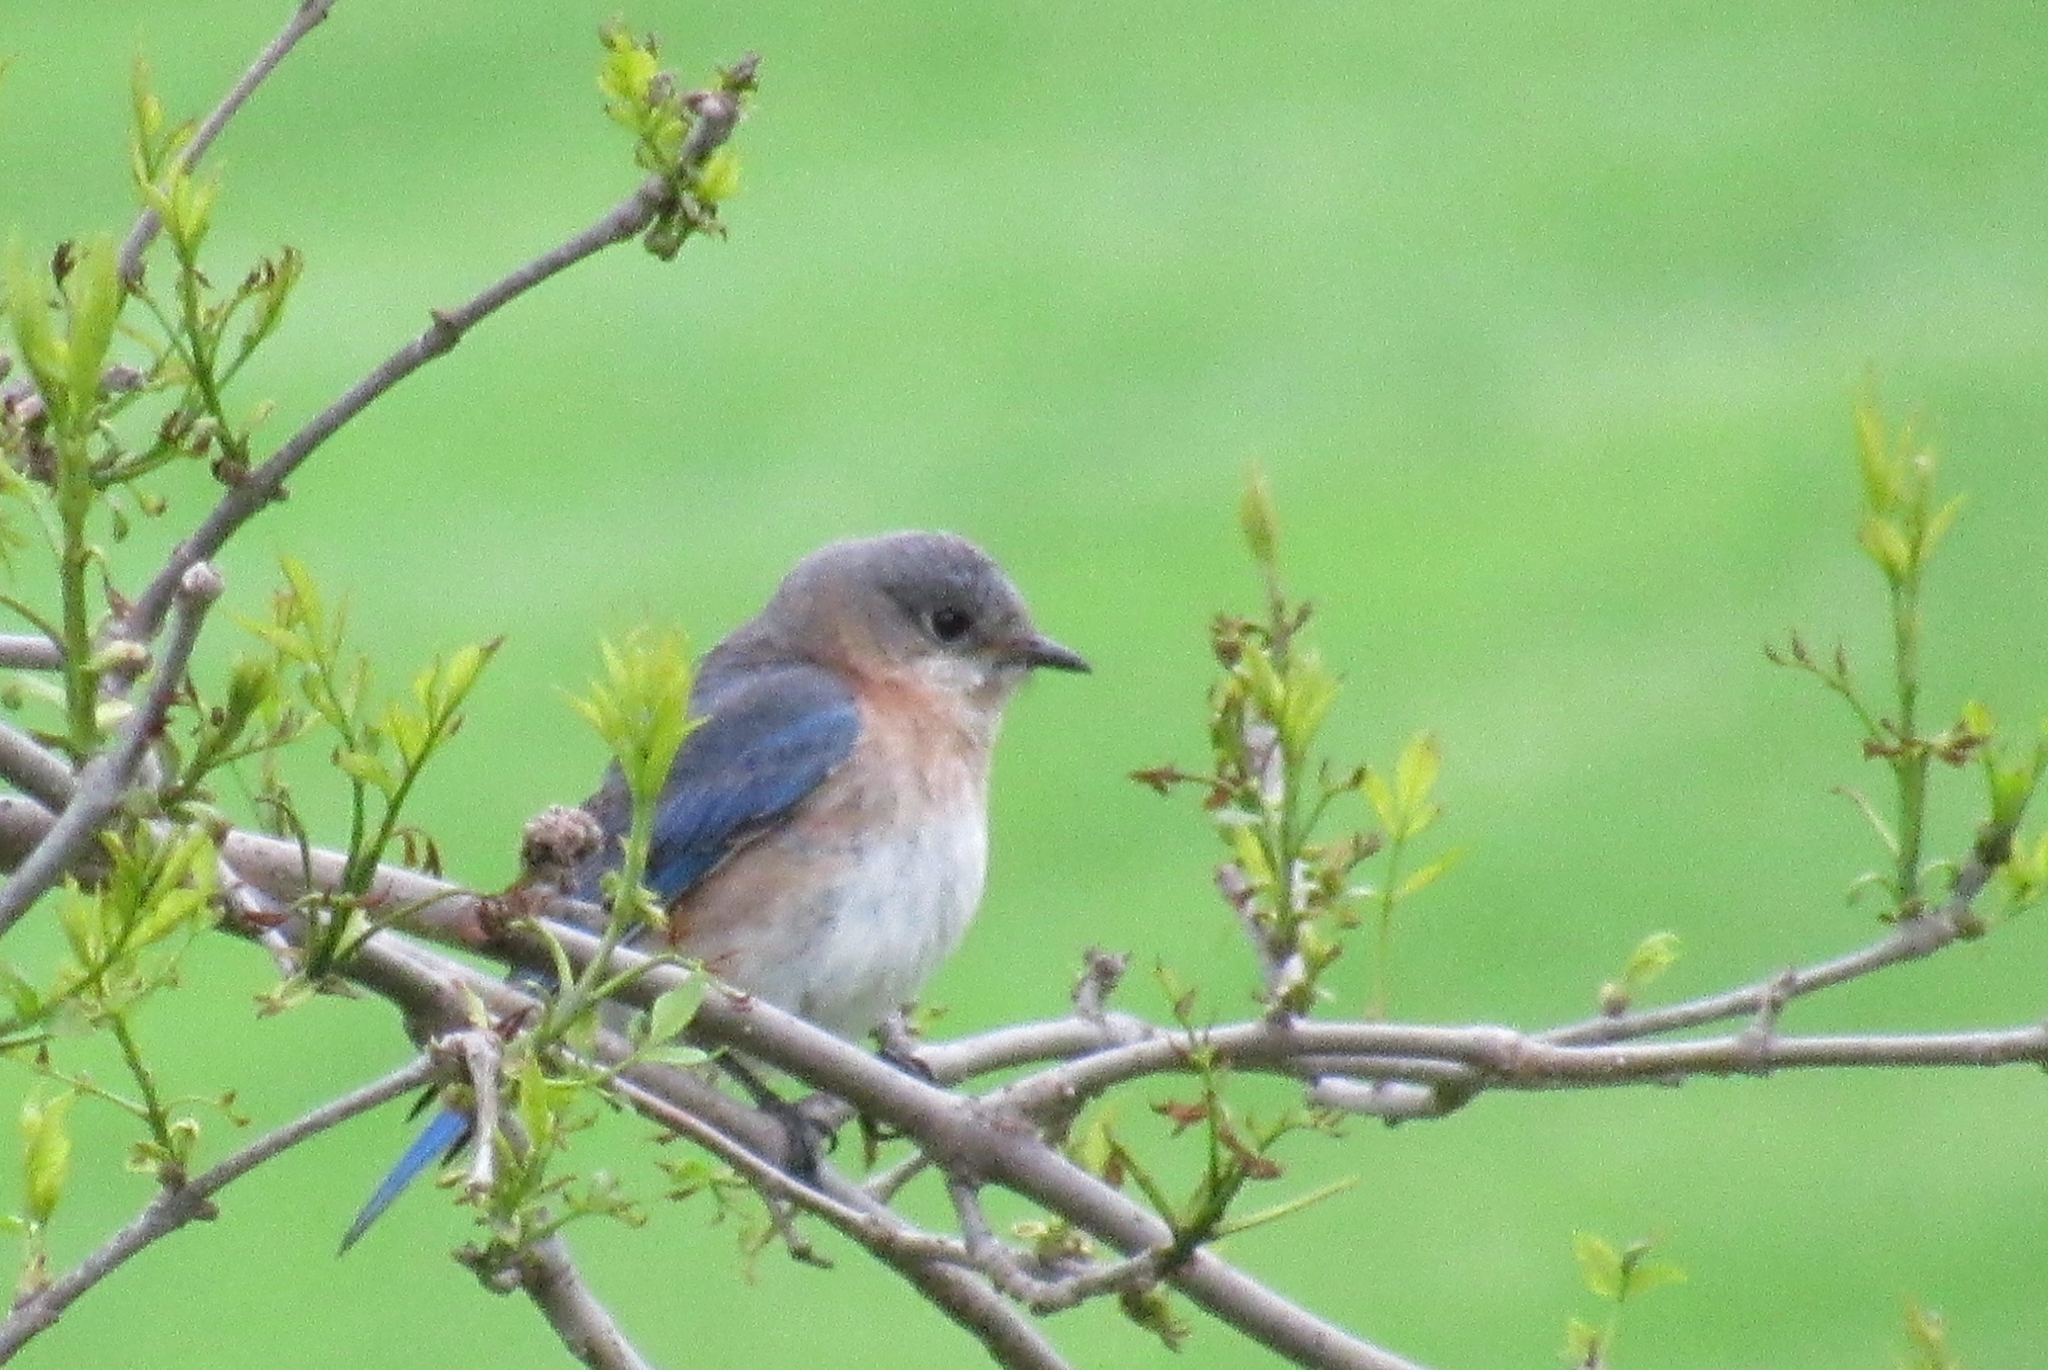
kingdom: Animalia
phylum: Chordata
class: Aves
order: Passeriformes
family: Turdidae
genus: Sialia
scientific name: Sialia sialis
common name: Eastern bluebird
